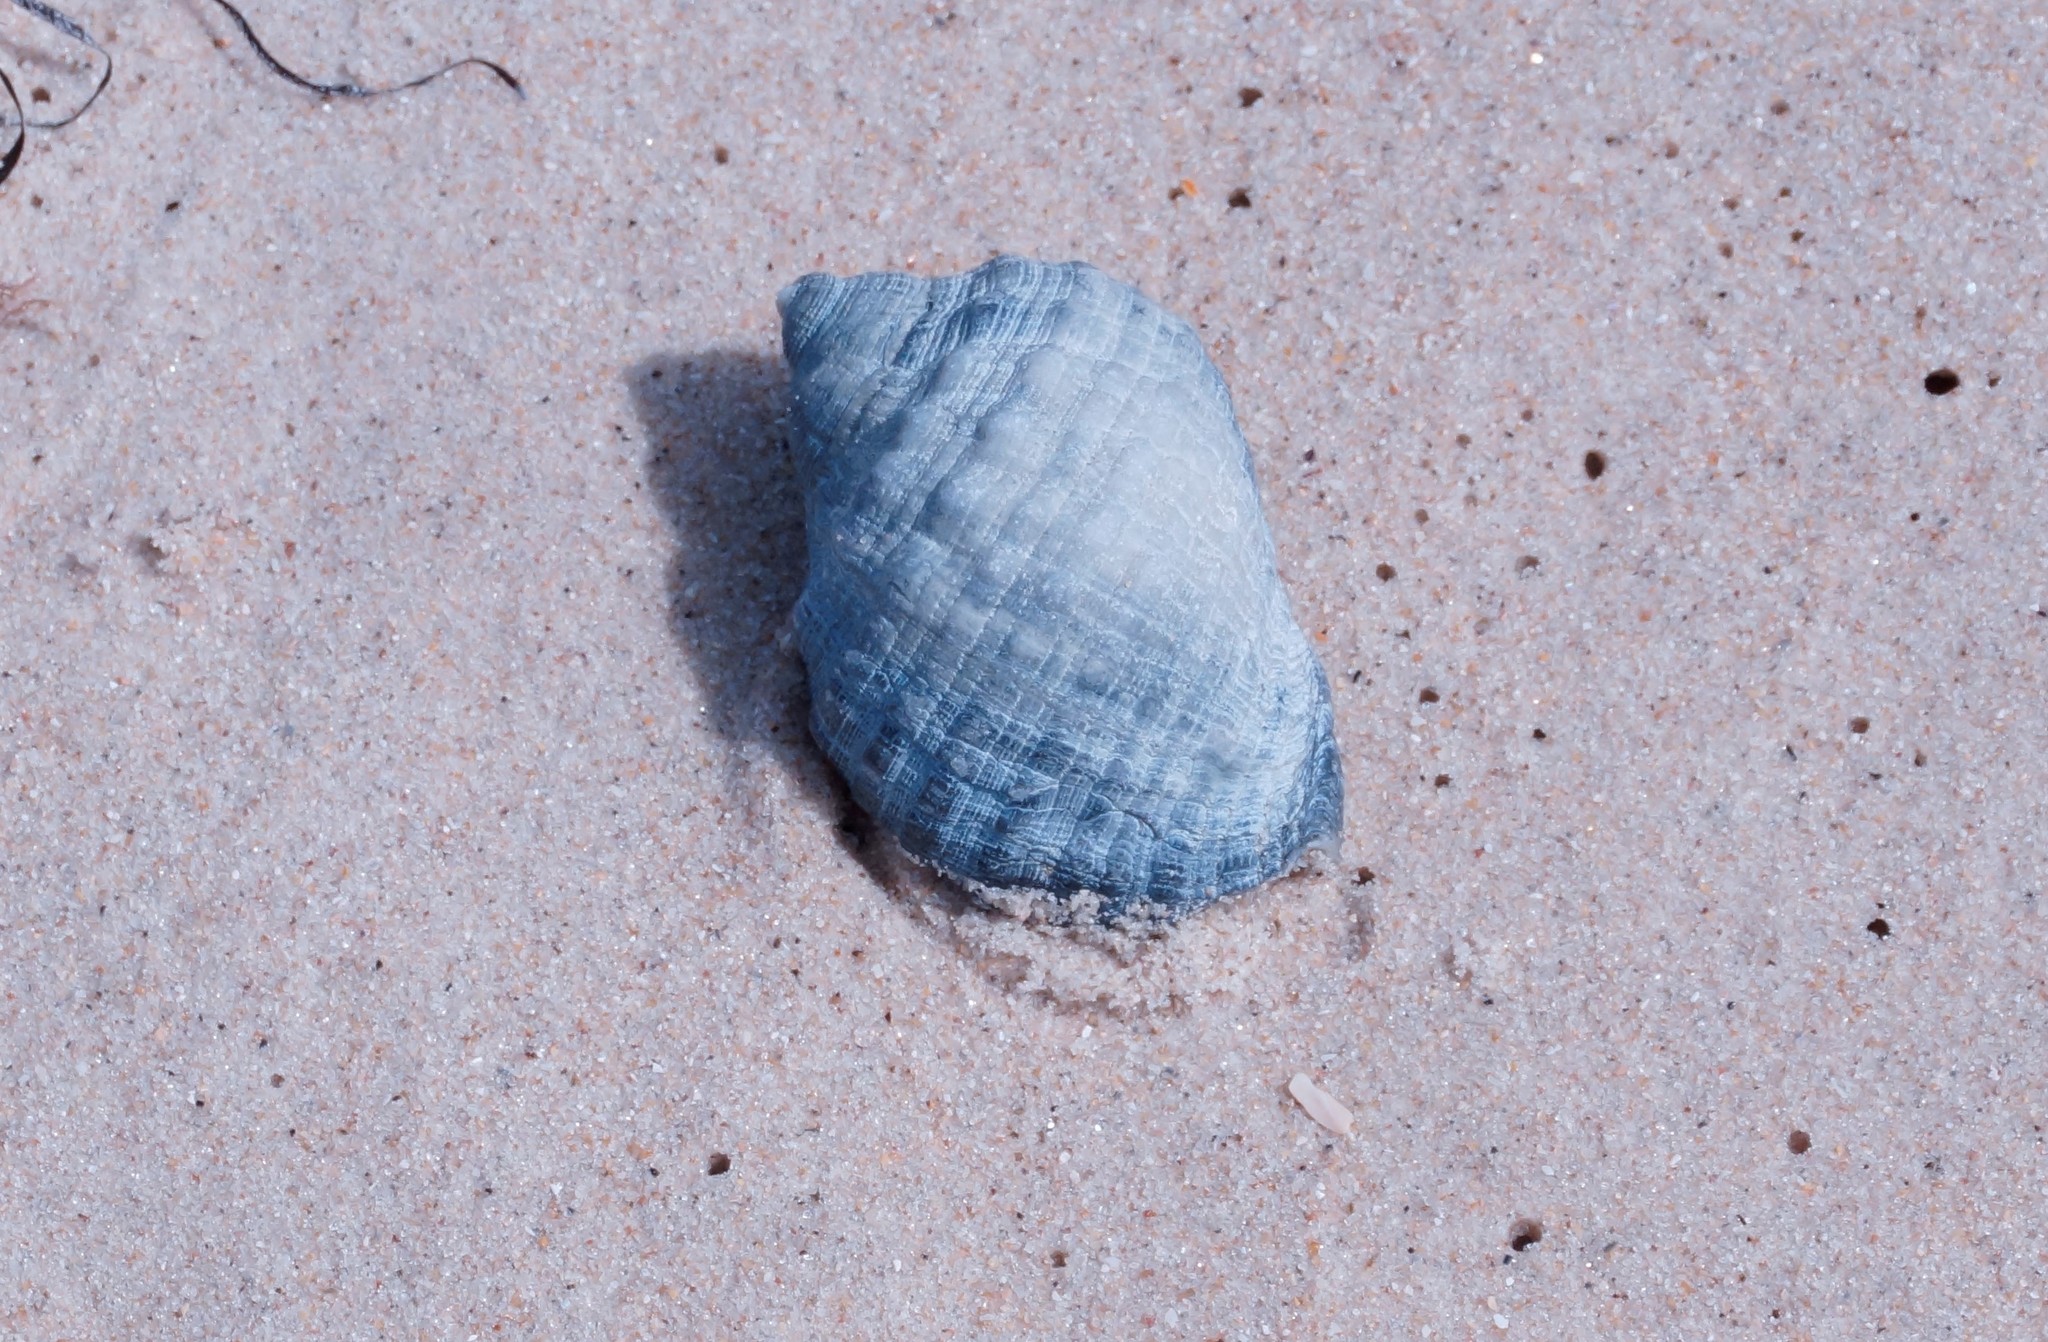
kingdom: Animalia
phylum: Mollusca
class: Gastropoda
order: Neogastropoda
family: Muricidae
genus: Dicathais
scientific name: Dicathais orbita
